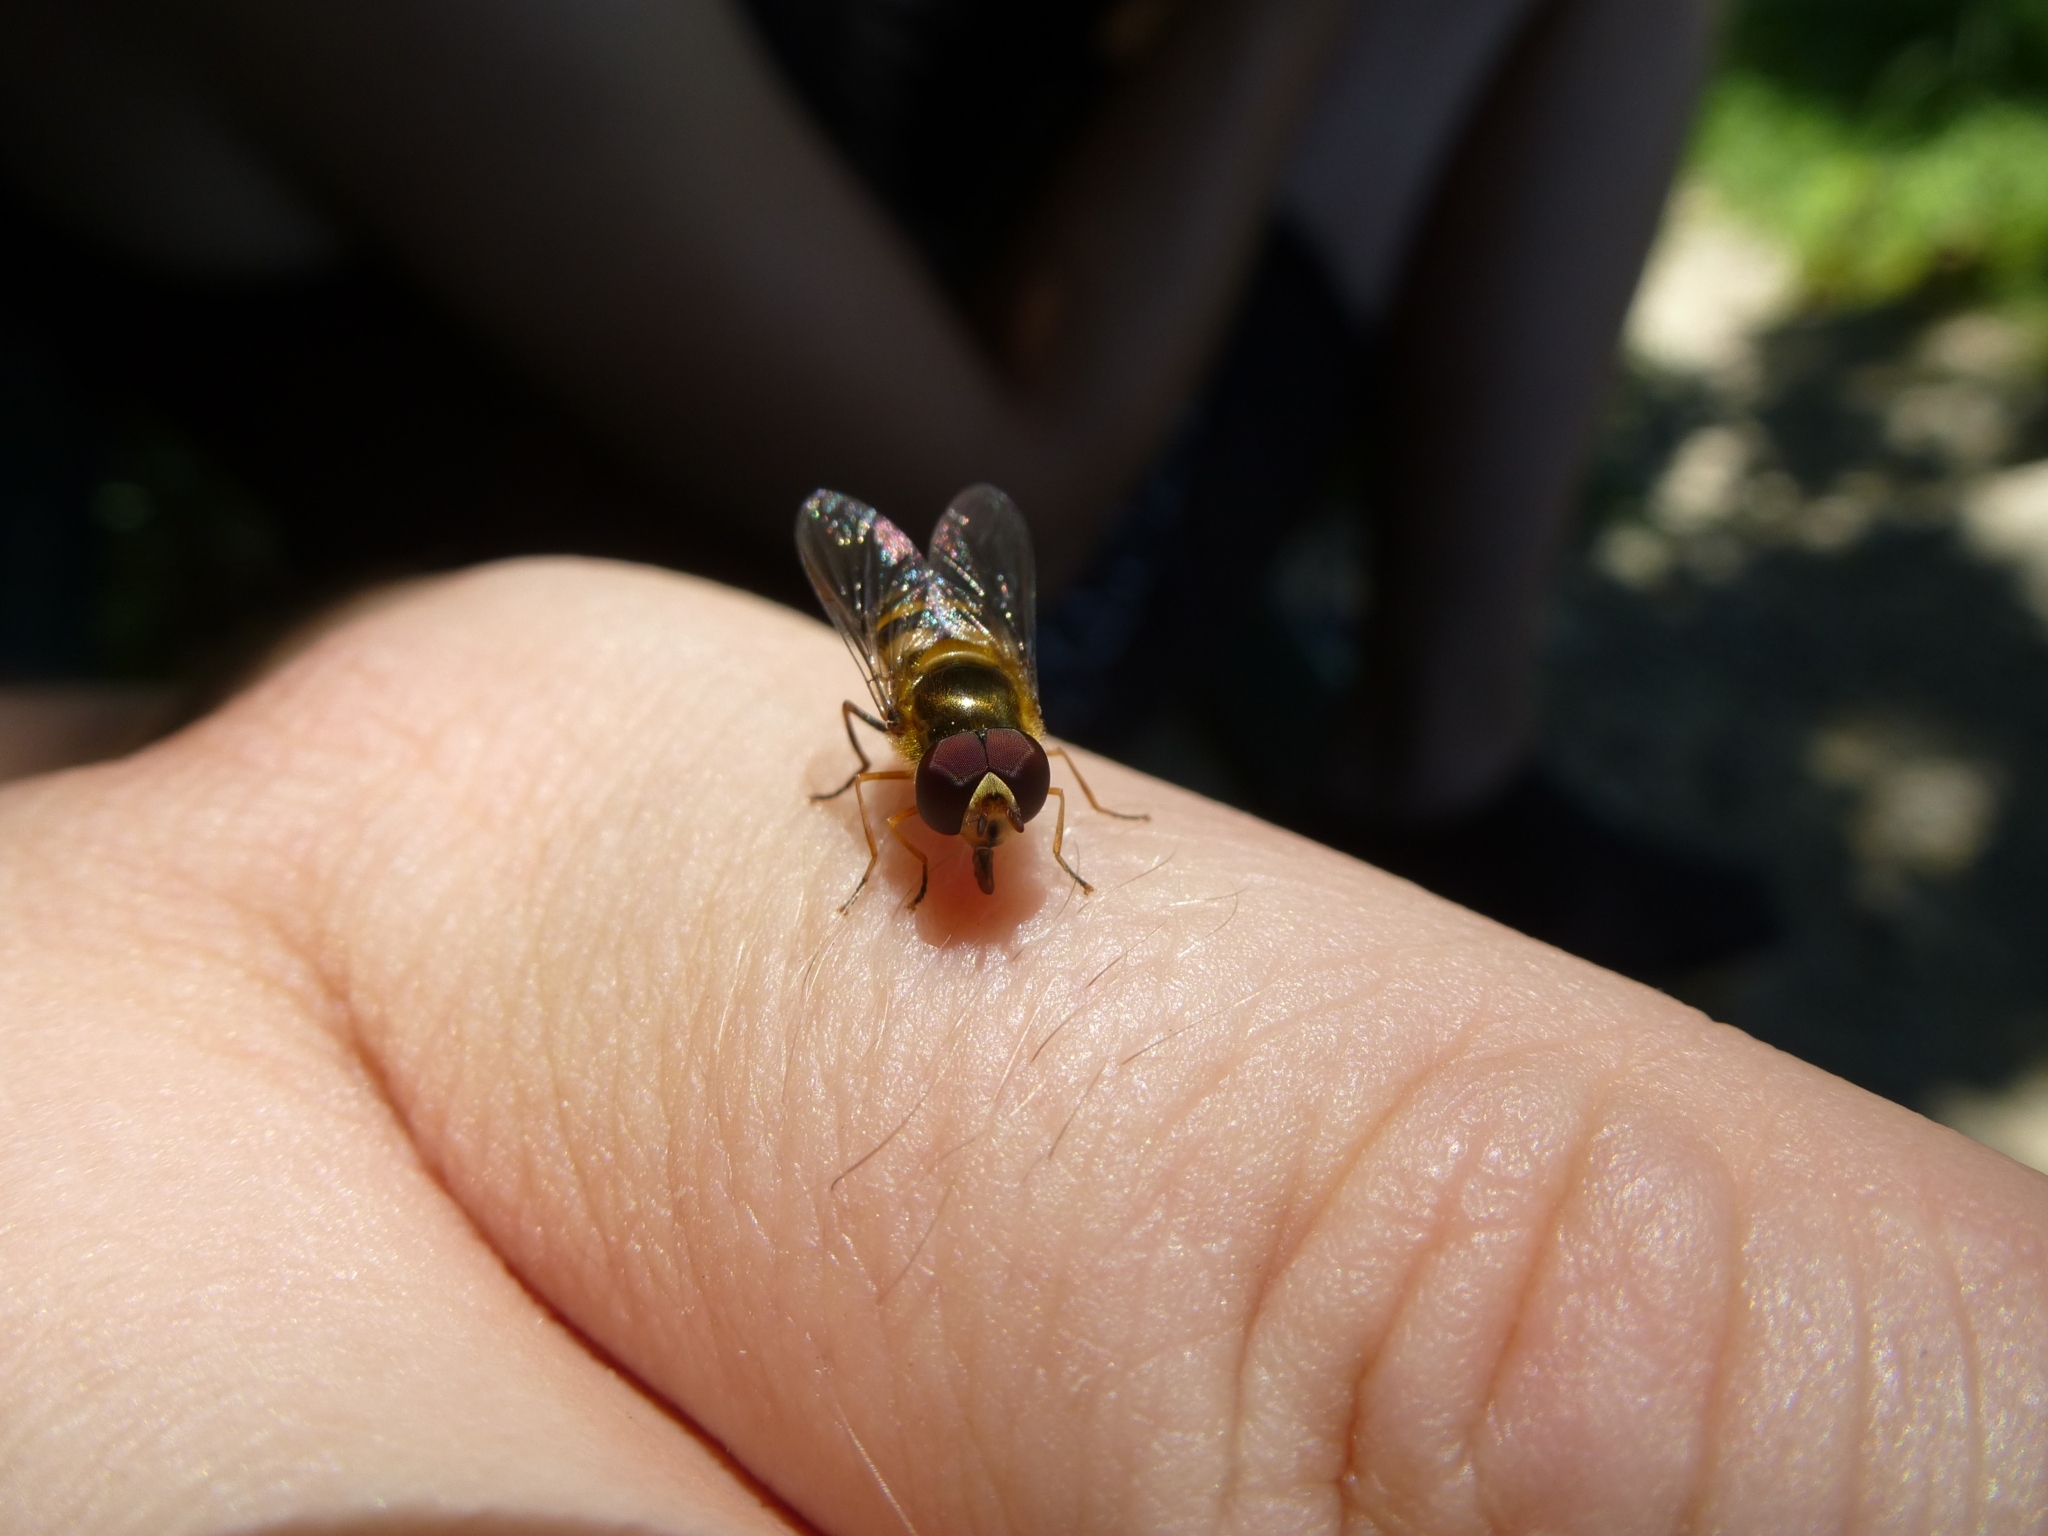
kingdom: Animalia
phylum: Arthropoda
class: Insecta
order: Diptera
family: Syrphidae
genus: Lapposyrphus
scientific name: Lapposyrphus lapponicus
